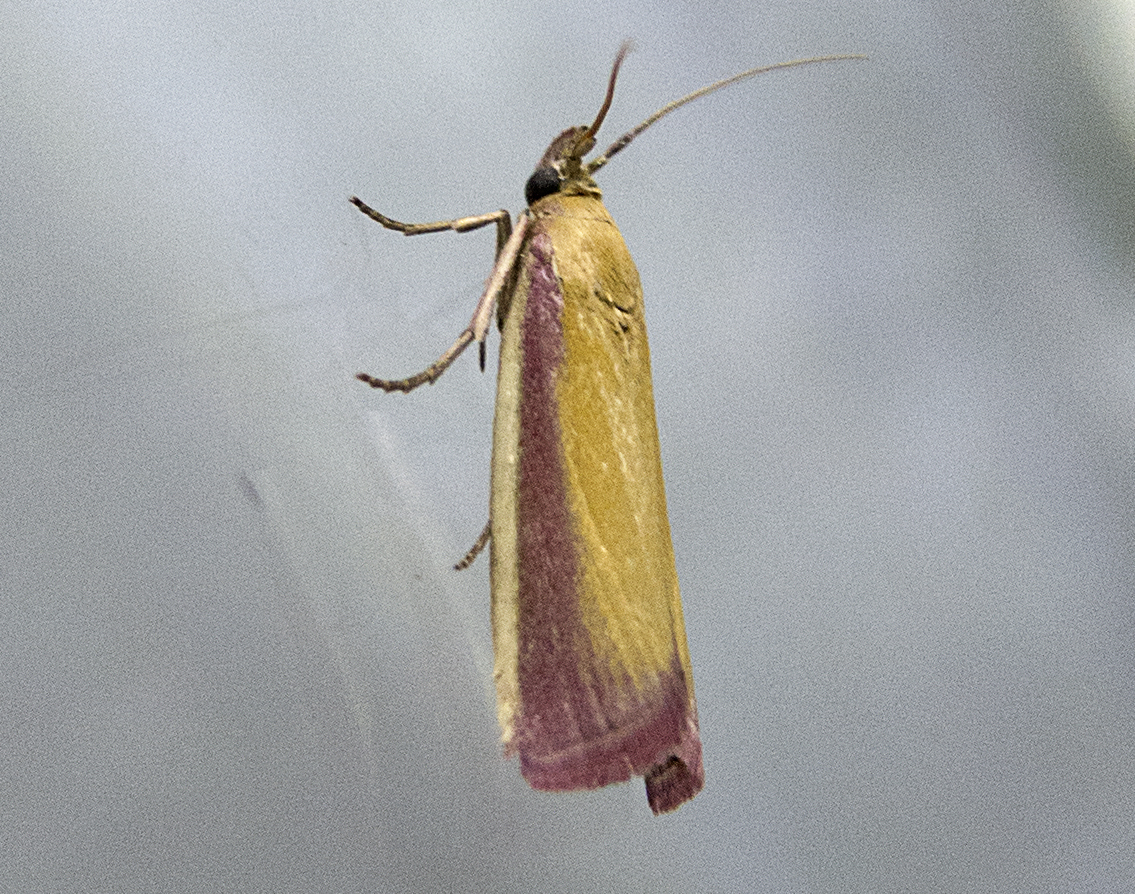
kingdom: Animalia
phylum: Arthropoda
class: Insecta
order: Lepidoptera
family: Pyralidae
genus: Oncocera
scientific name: Oncocera semirubella
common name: Rosy-striped knot-horn
